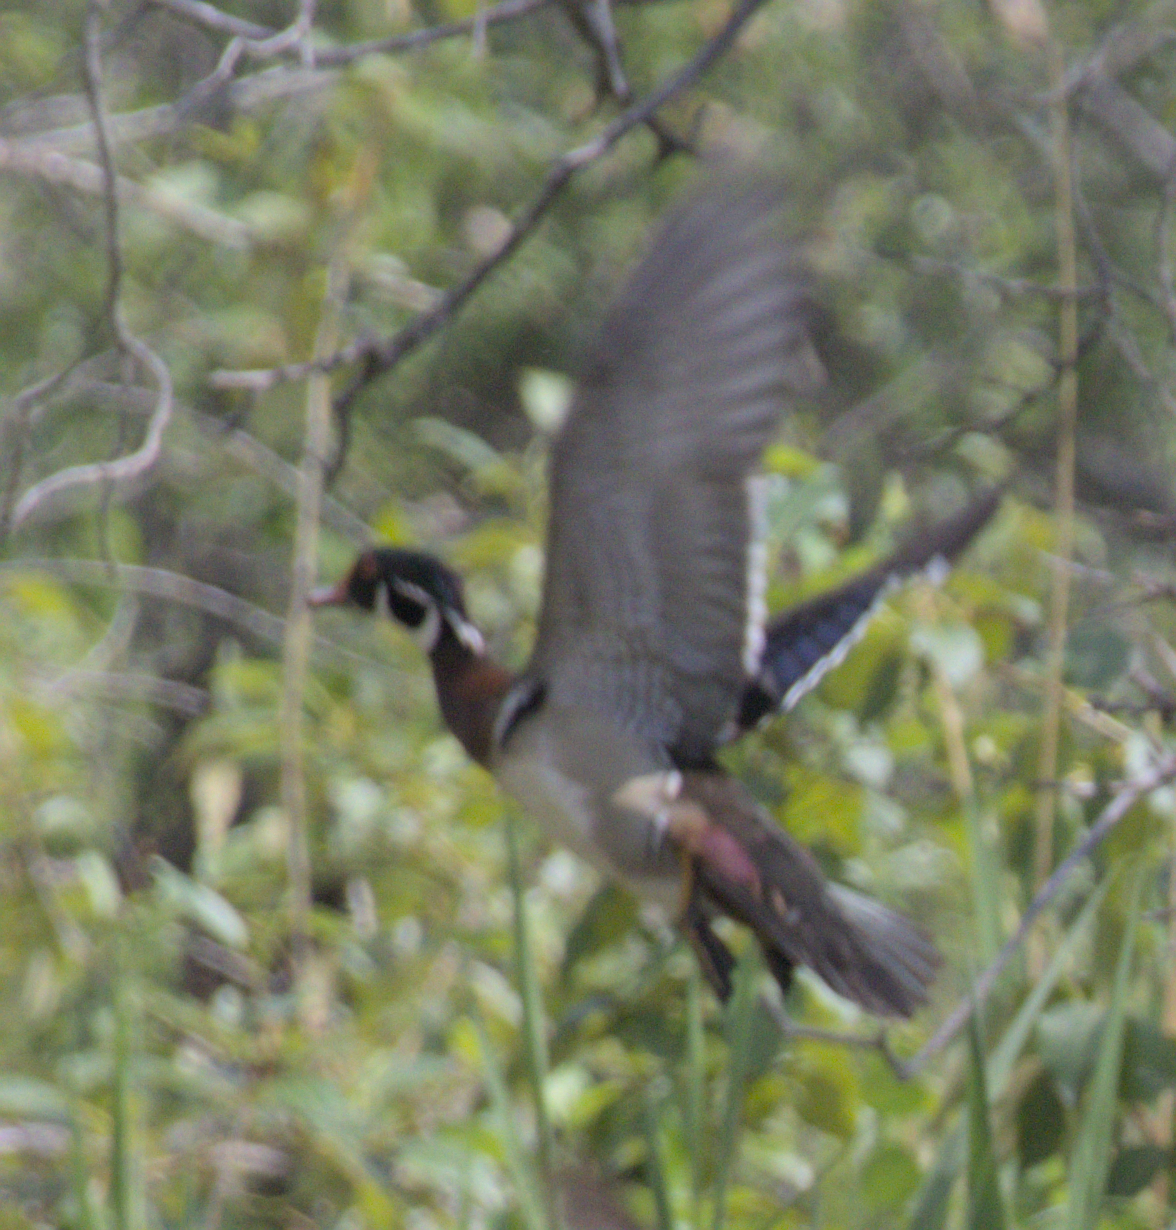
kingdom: Animalia
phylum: Chordata
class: Aves
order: Anseriformes
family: Anatidae
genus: Aix
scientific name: Aix sponsa
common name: Wood duck
